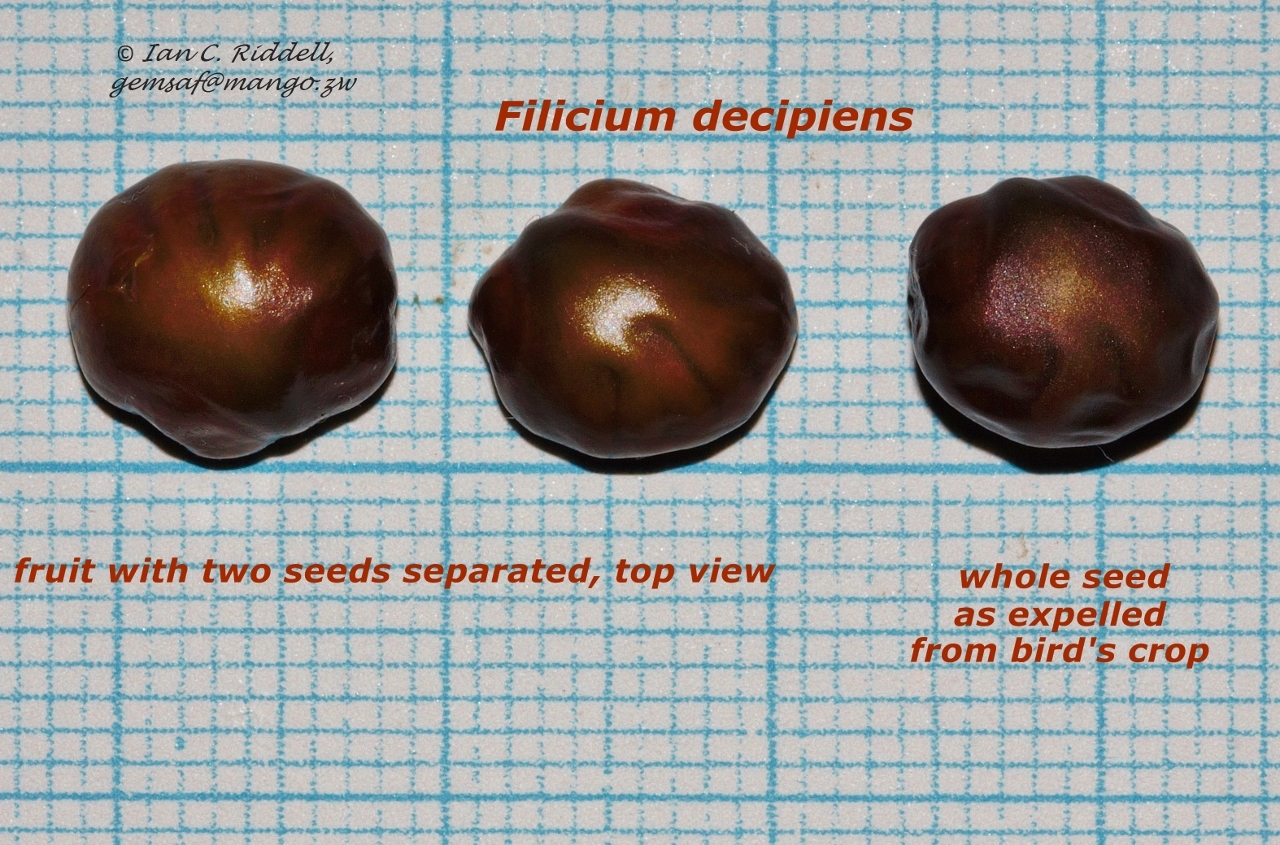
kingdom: Plantae
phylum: Tracheophyta
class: Magnoliopsida
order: Sapindales
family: Sapindaceae
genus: Filicium
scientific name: Filicium decipiens
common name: Ferntree
